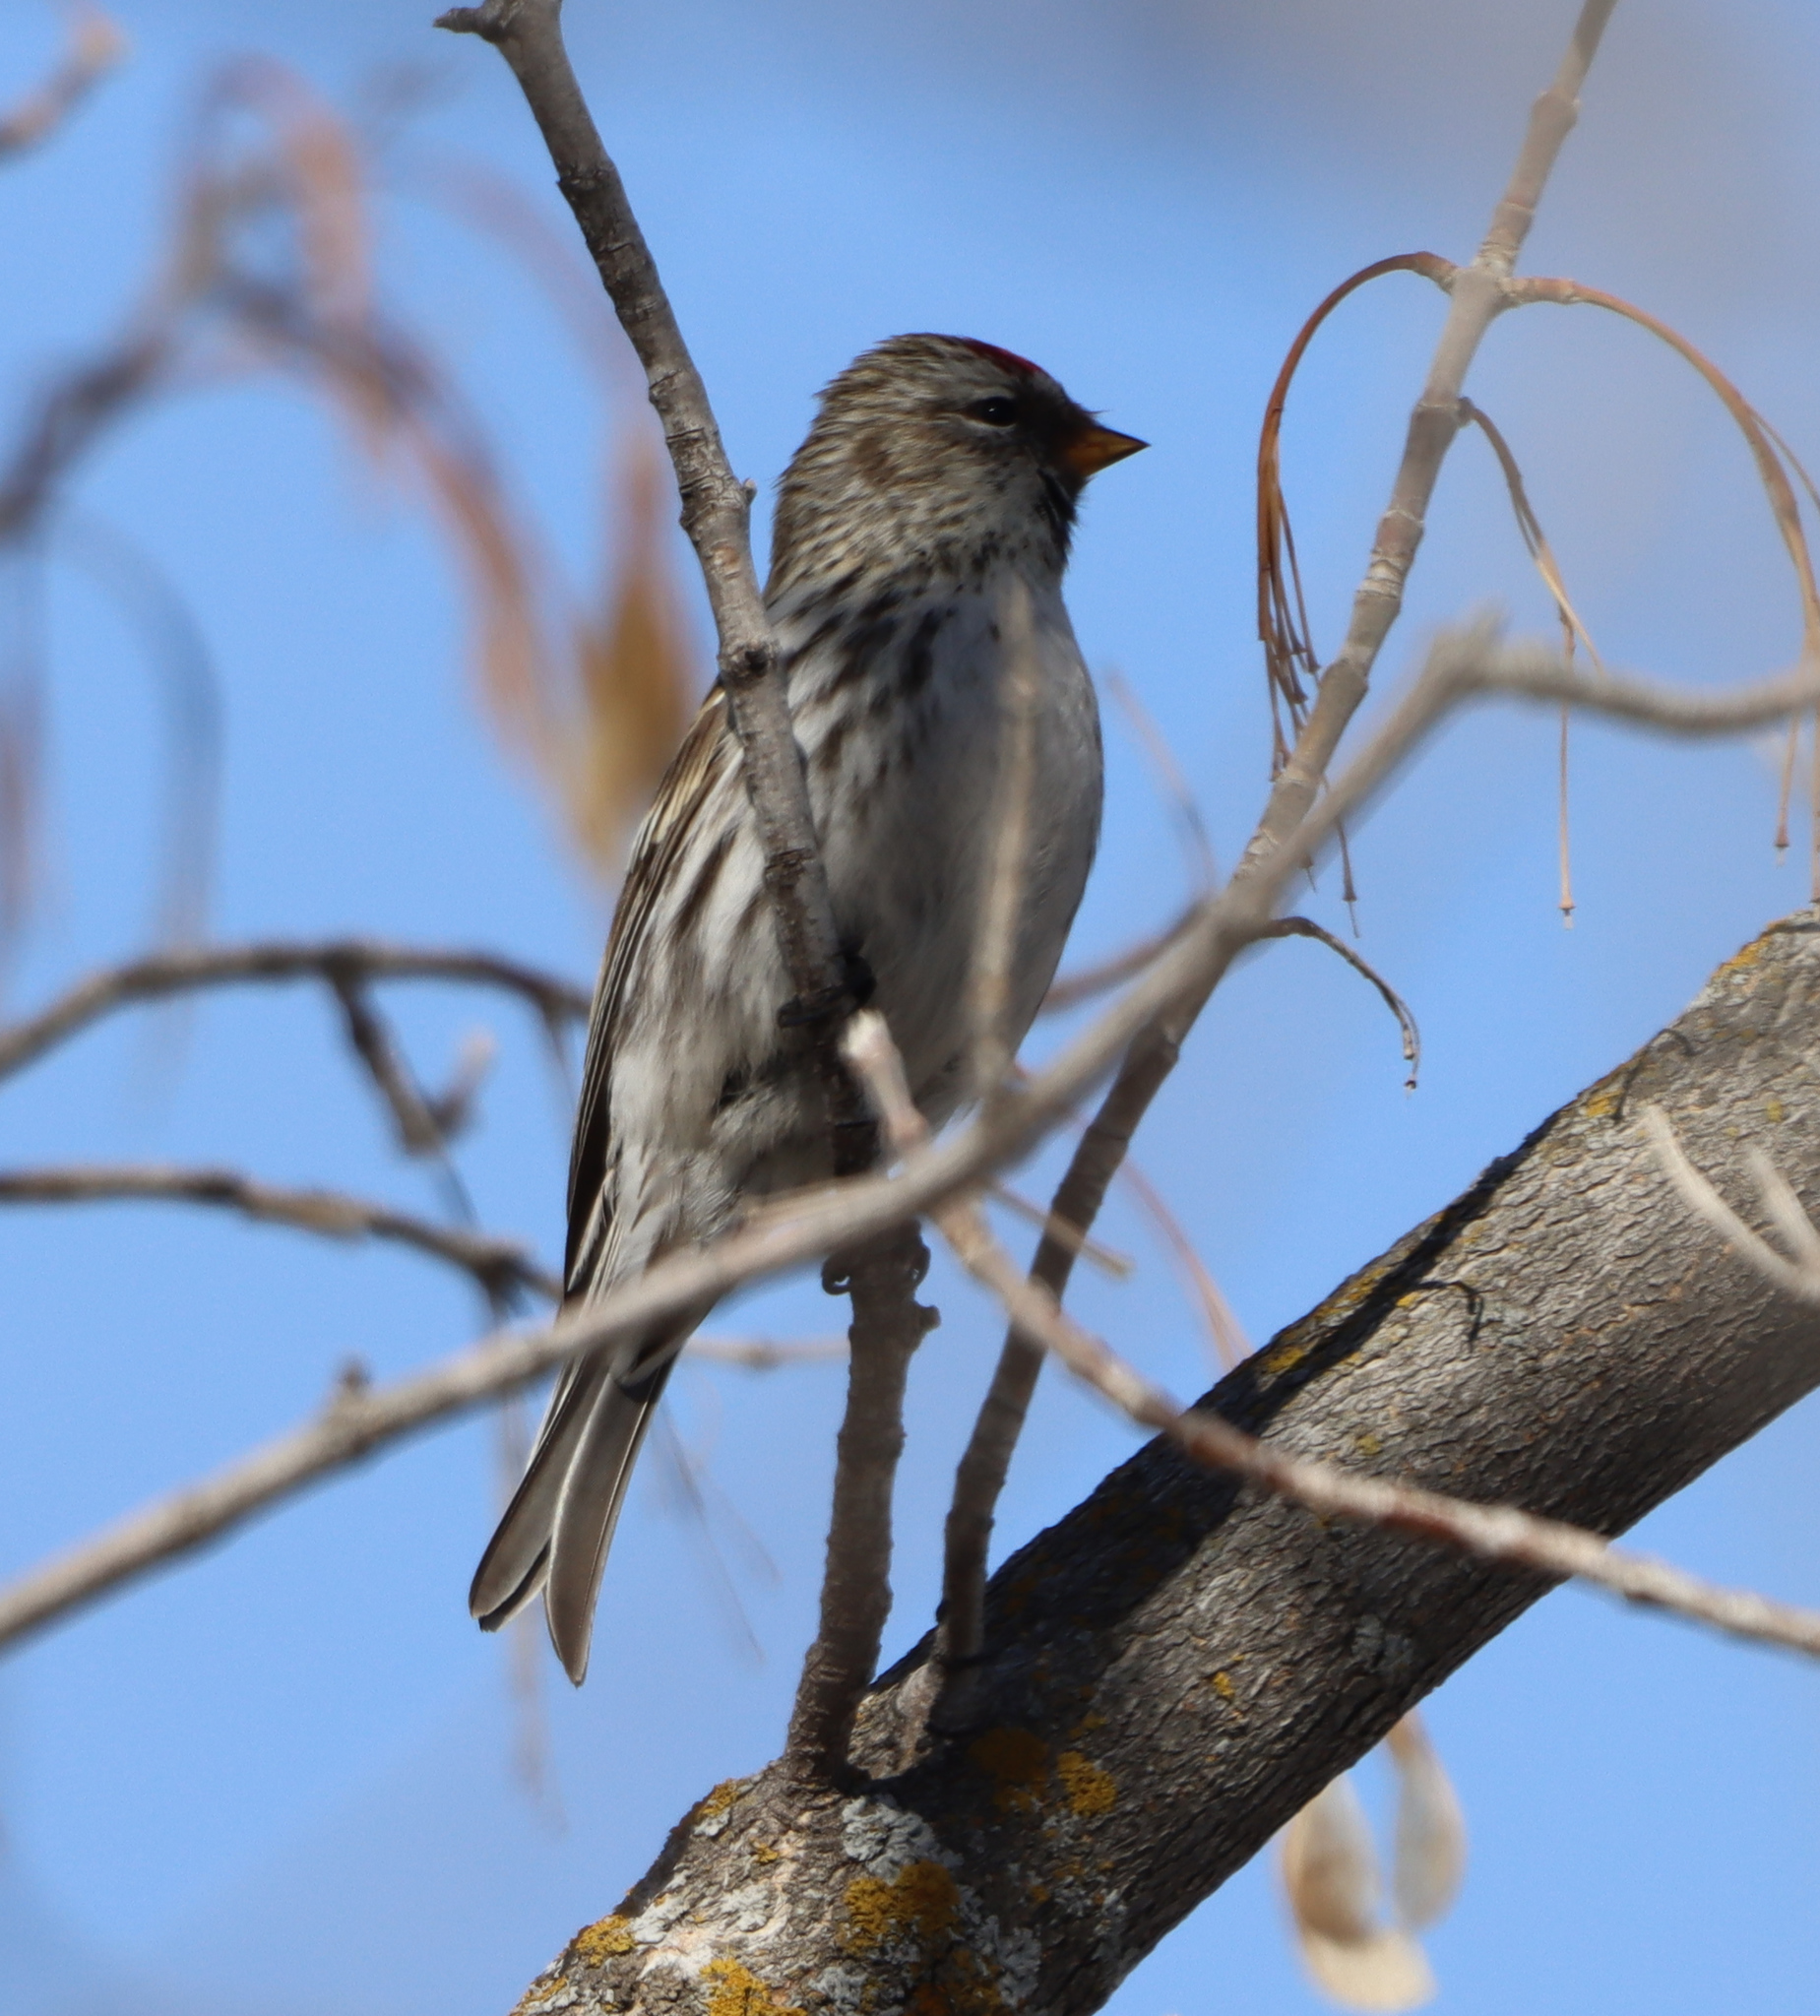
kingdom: Animalia
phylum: Chordata
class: Aves
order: Passeriformes
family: Fringillidae
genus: Acanthis
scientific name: Acanthis flammea
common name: Common redpoll
